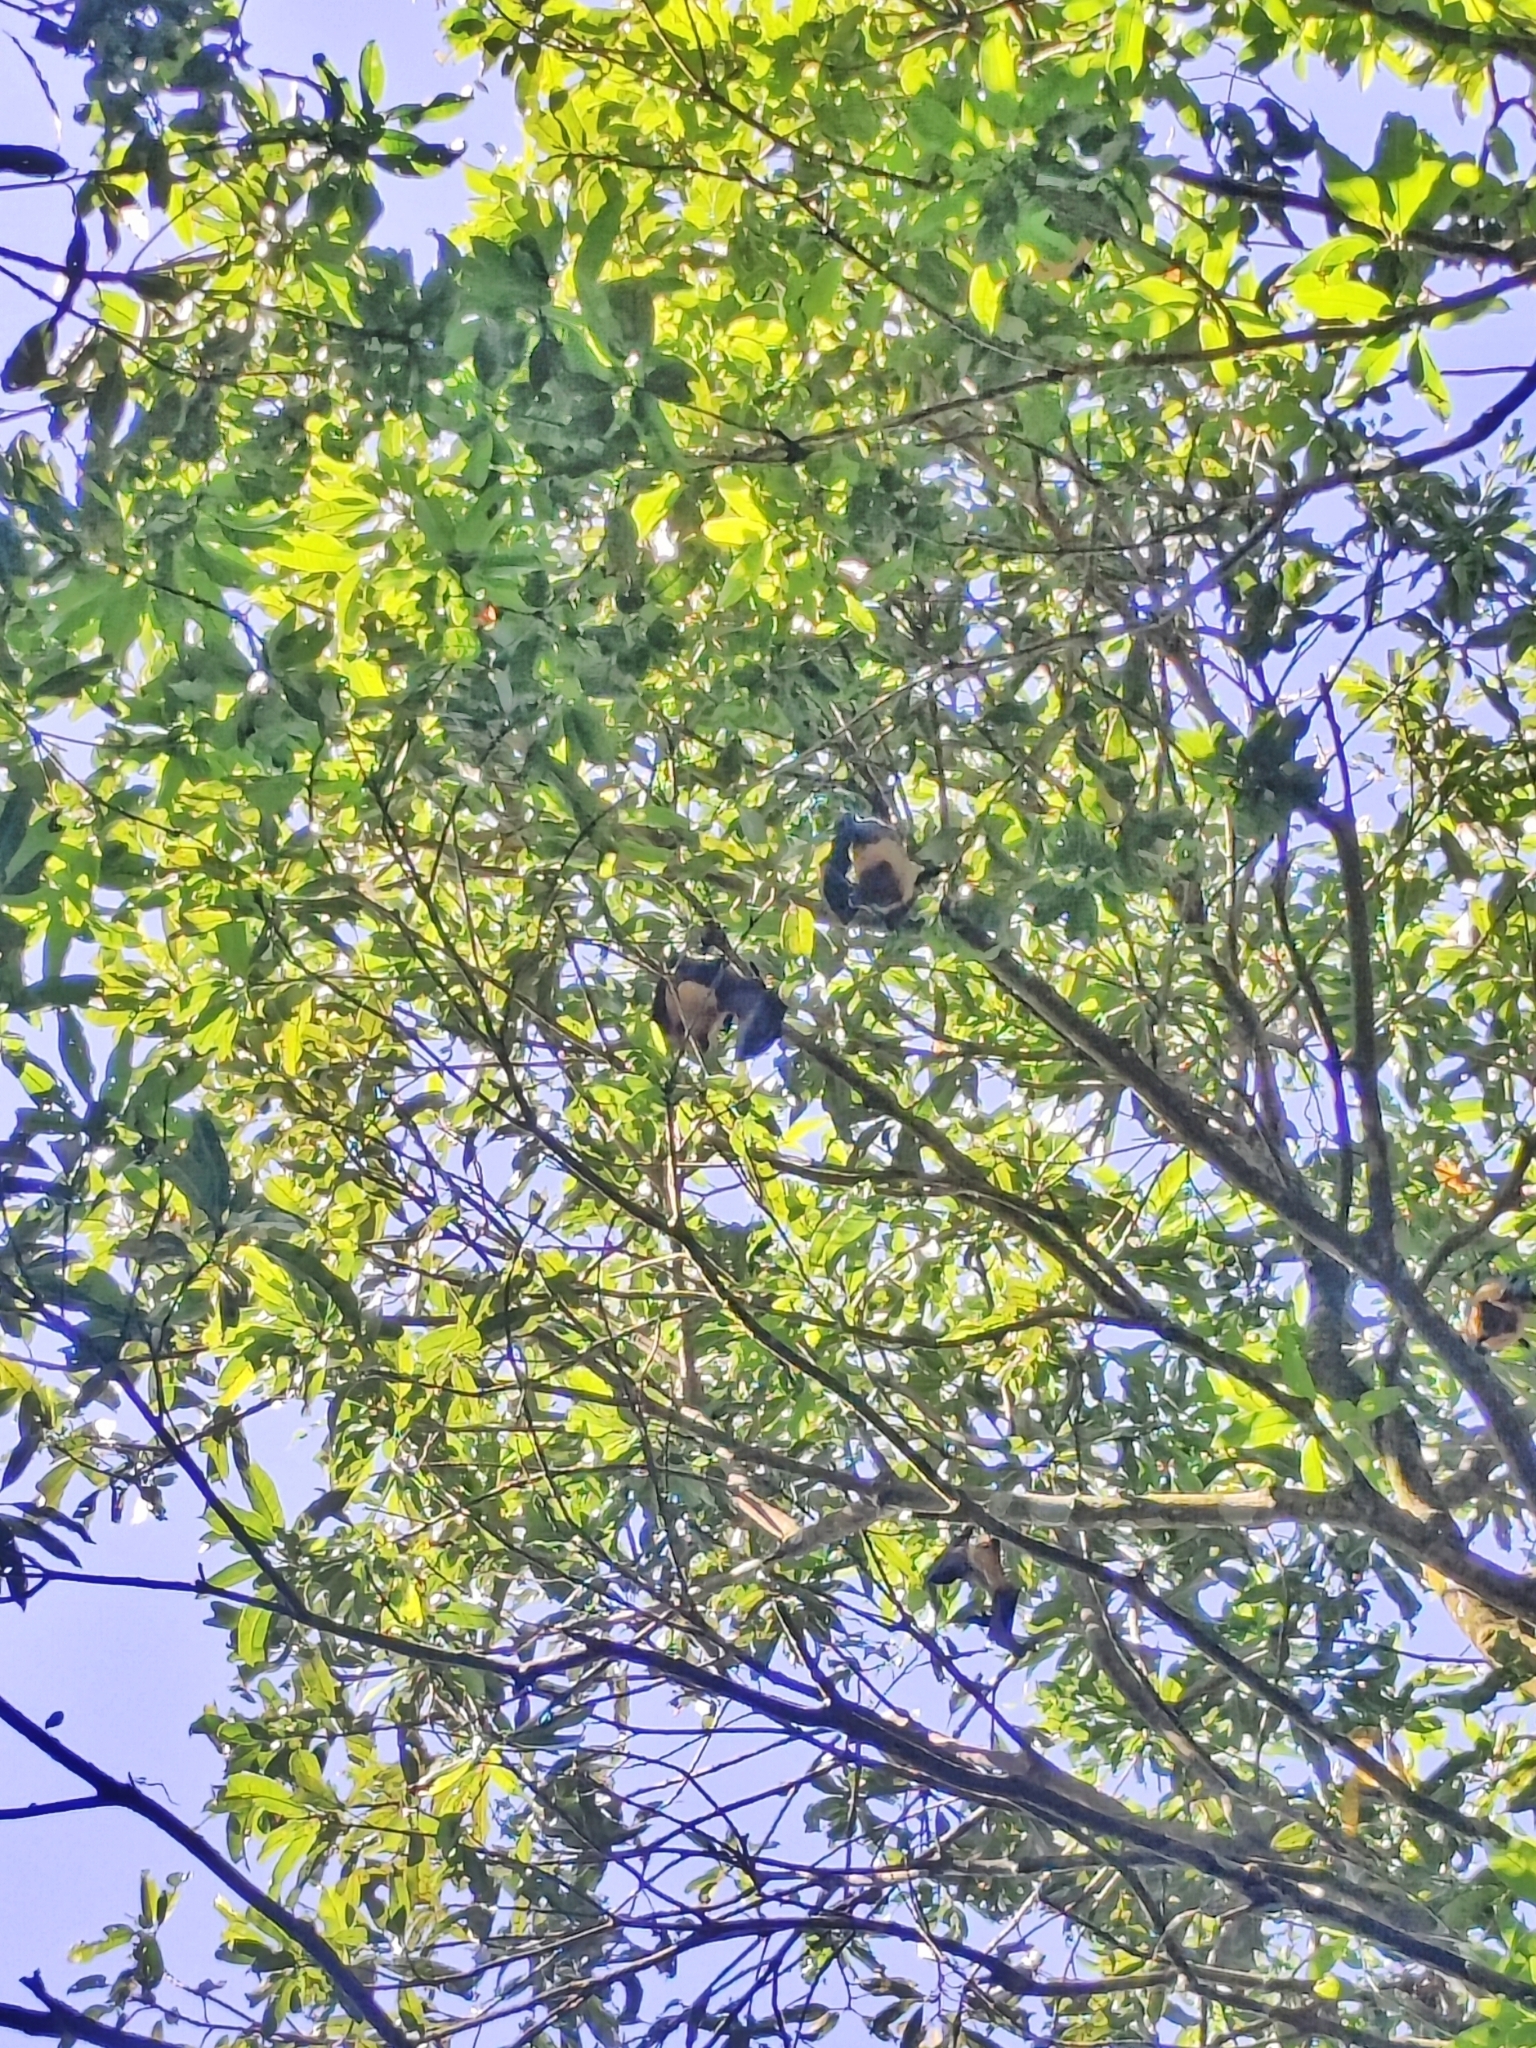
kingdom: Animalia
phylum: Chordata
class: Mammalia
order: Chiroptera
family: Pteropodidae
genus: Pteropus
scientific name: Pteropus vampyrus
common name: Large flying fox
